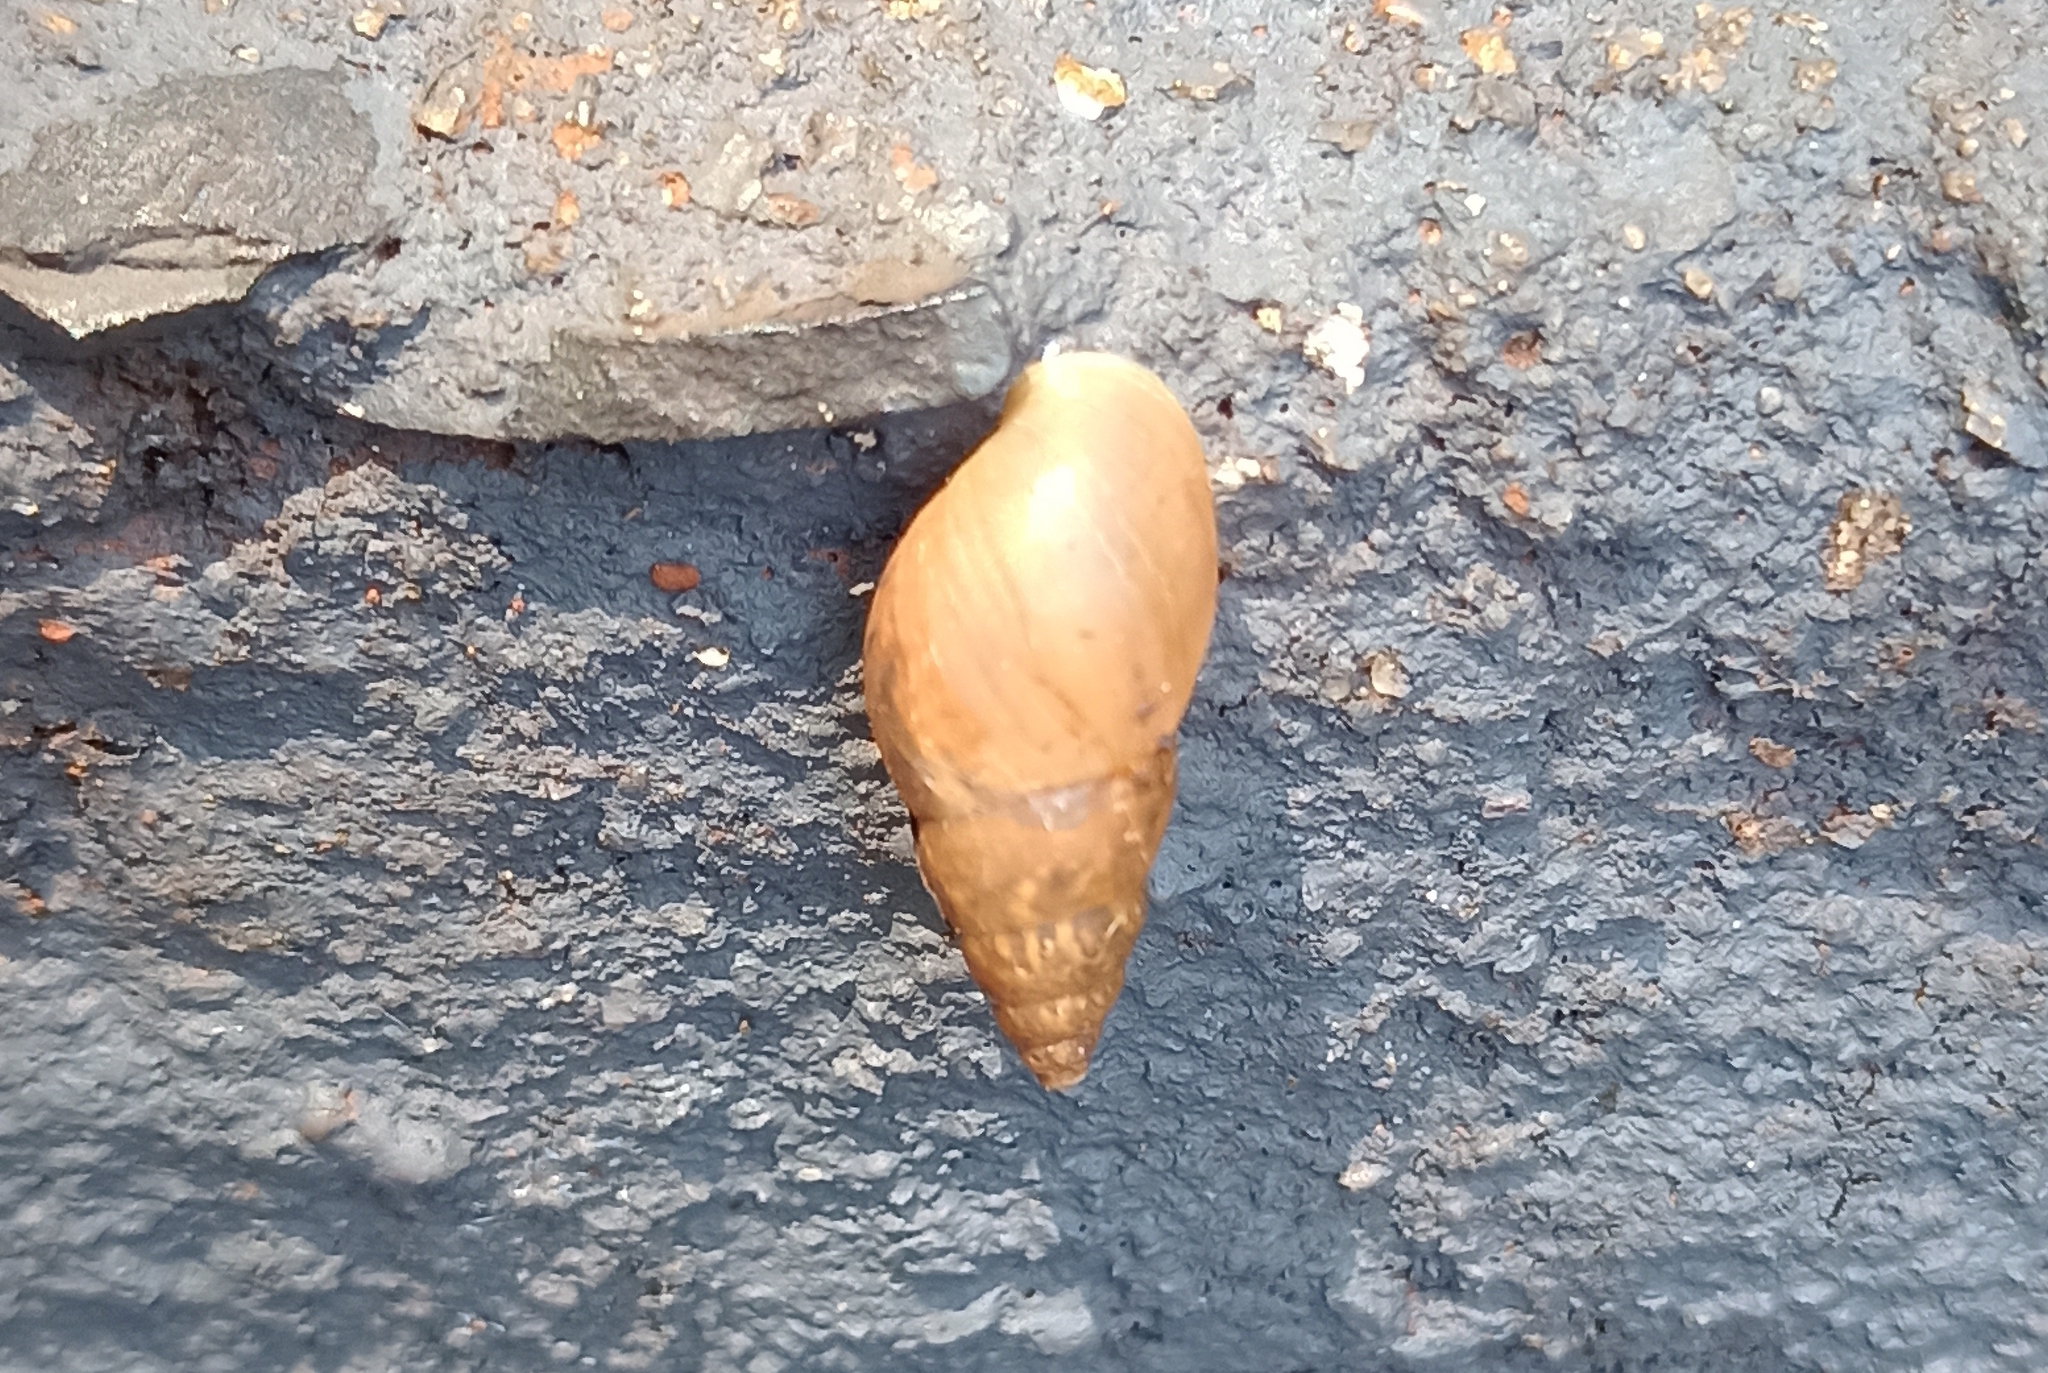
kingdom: Animalia
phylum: Mollusca
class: Gastropoda
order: Stylommatophora
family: Bulimulidae
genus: Bulimulus
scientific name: Bulimulus tenuissimus
